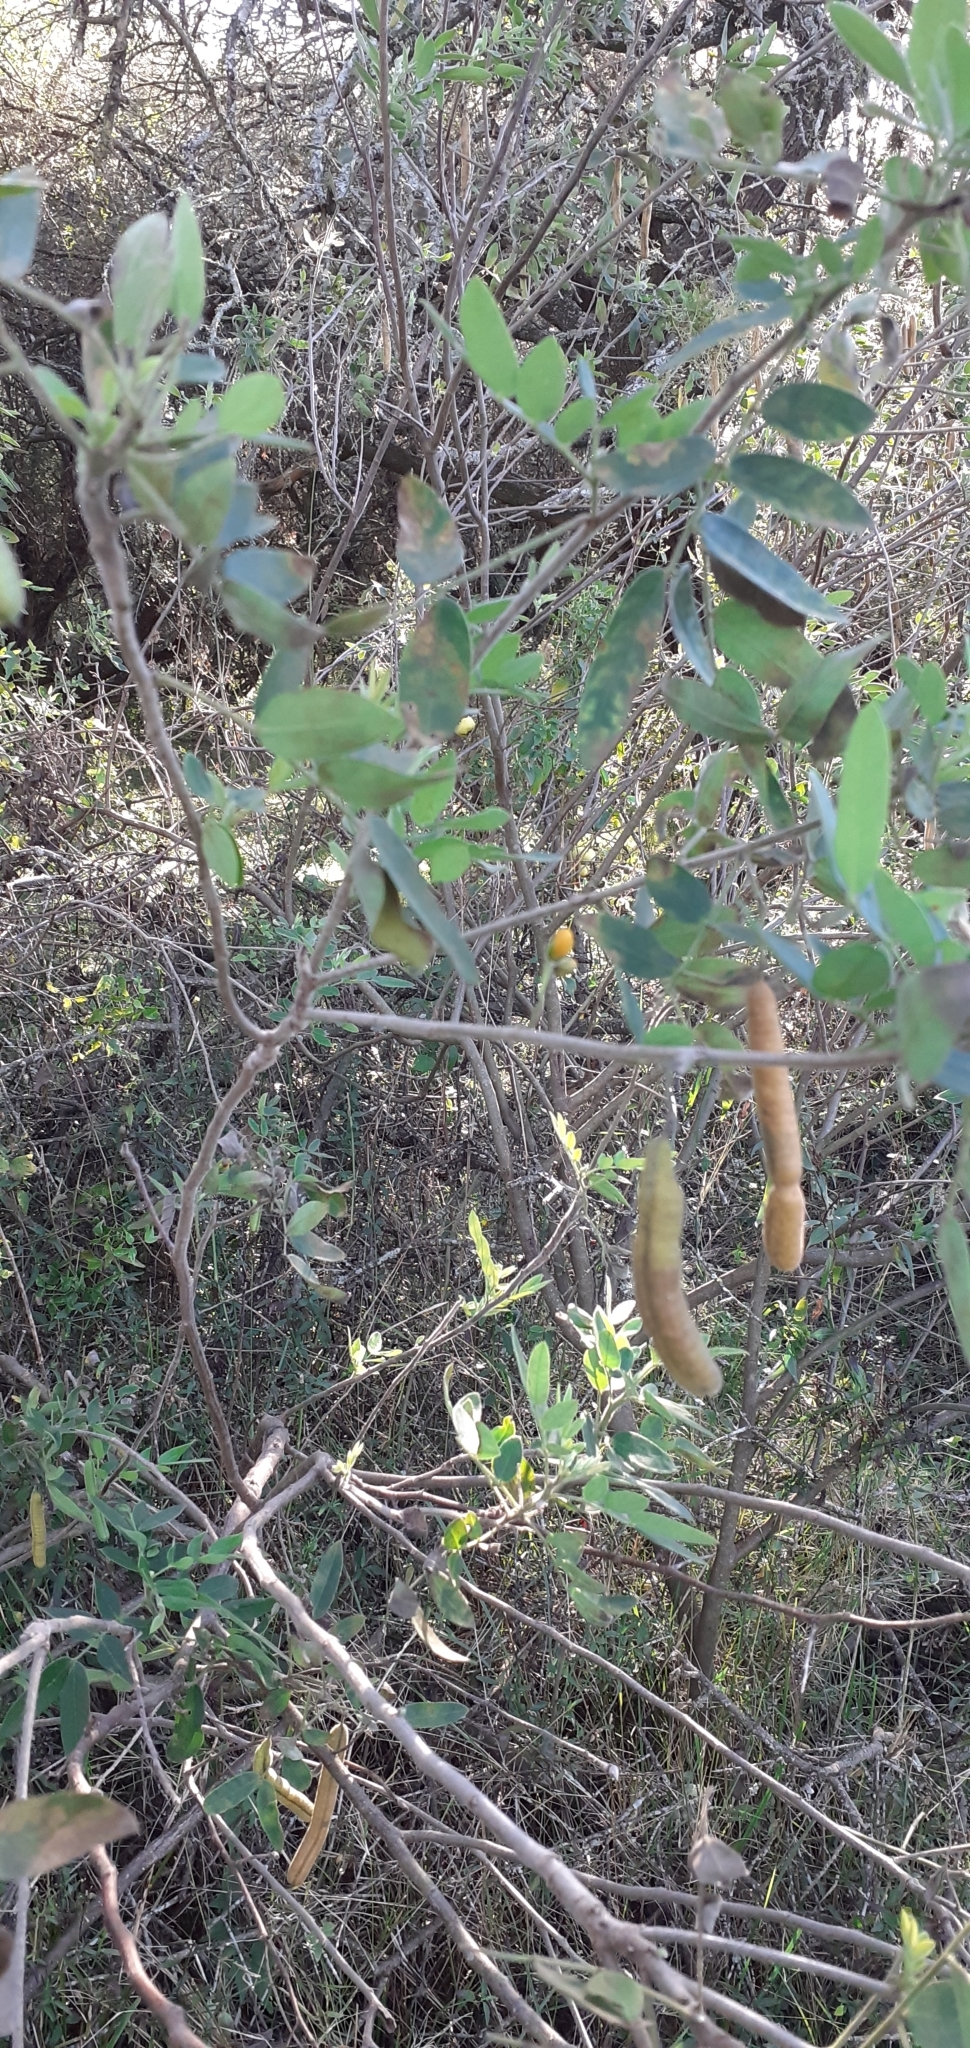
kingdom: Plantae
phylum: Tracheophyta
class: Magnoliopsida
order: Fabales
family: Fabaceae
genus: Senna
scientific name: Senna morongii
